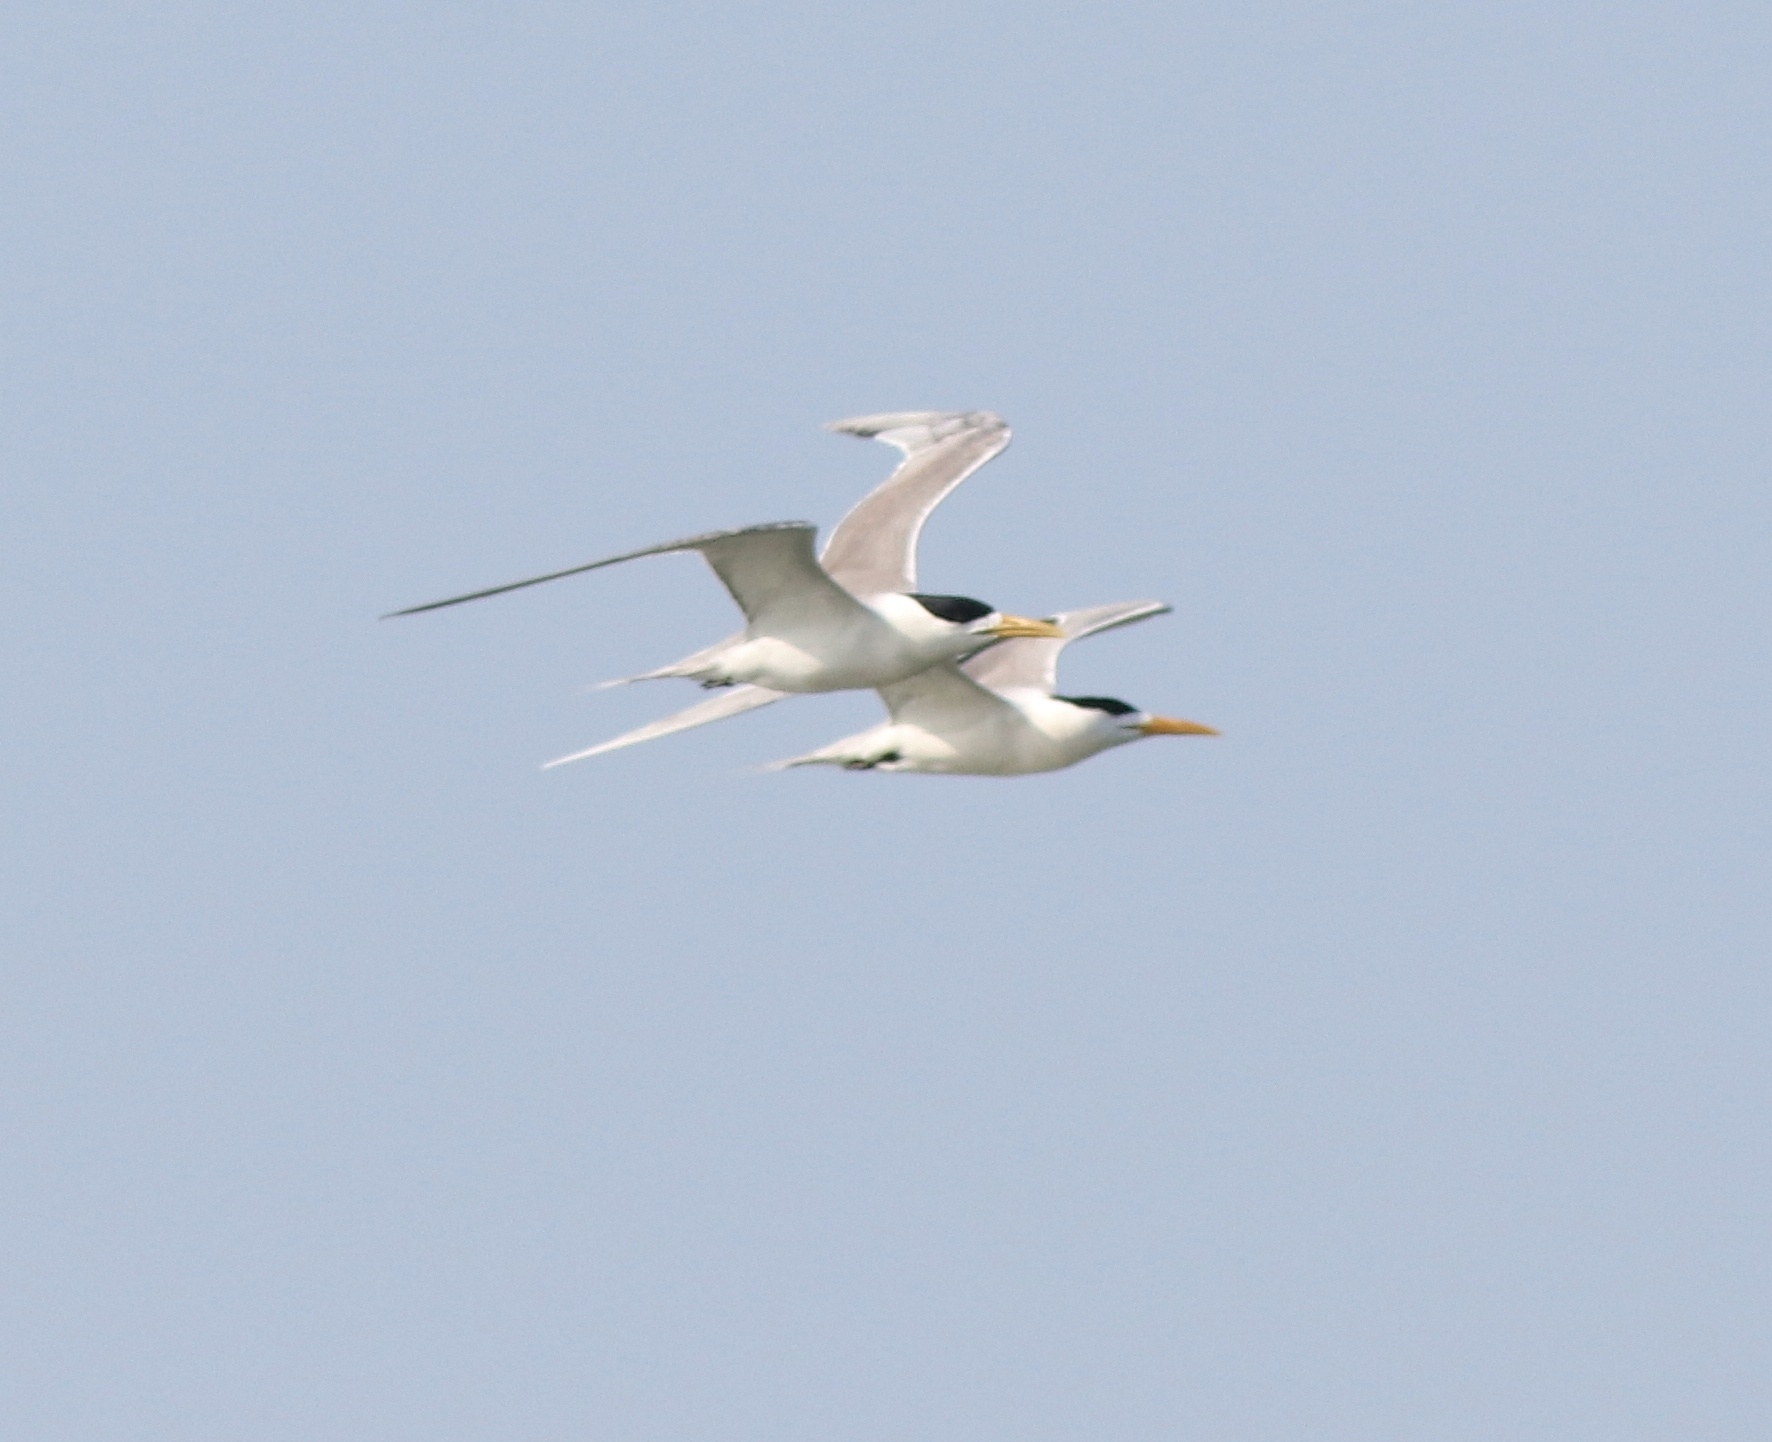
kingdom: Animalia
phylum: Chordata
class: Aves
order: Charadriiformes
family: Laridae
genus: Thalasseus
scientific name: Thalasseus bergii
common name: Greater crested tern
